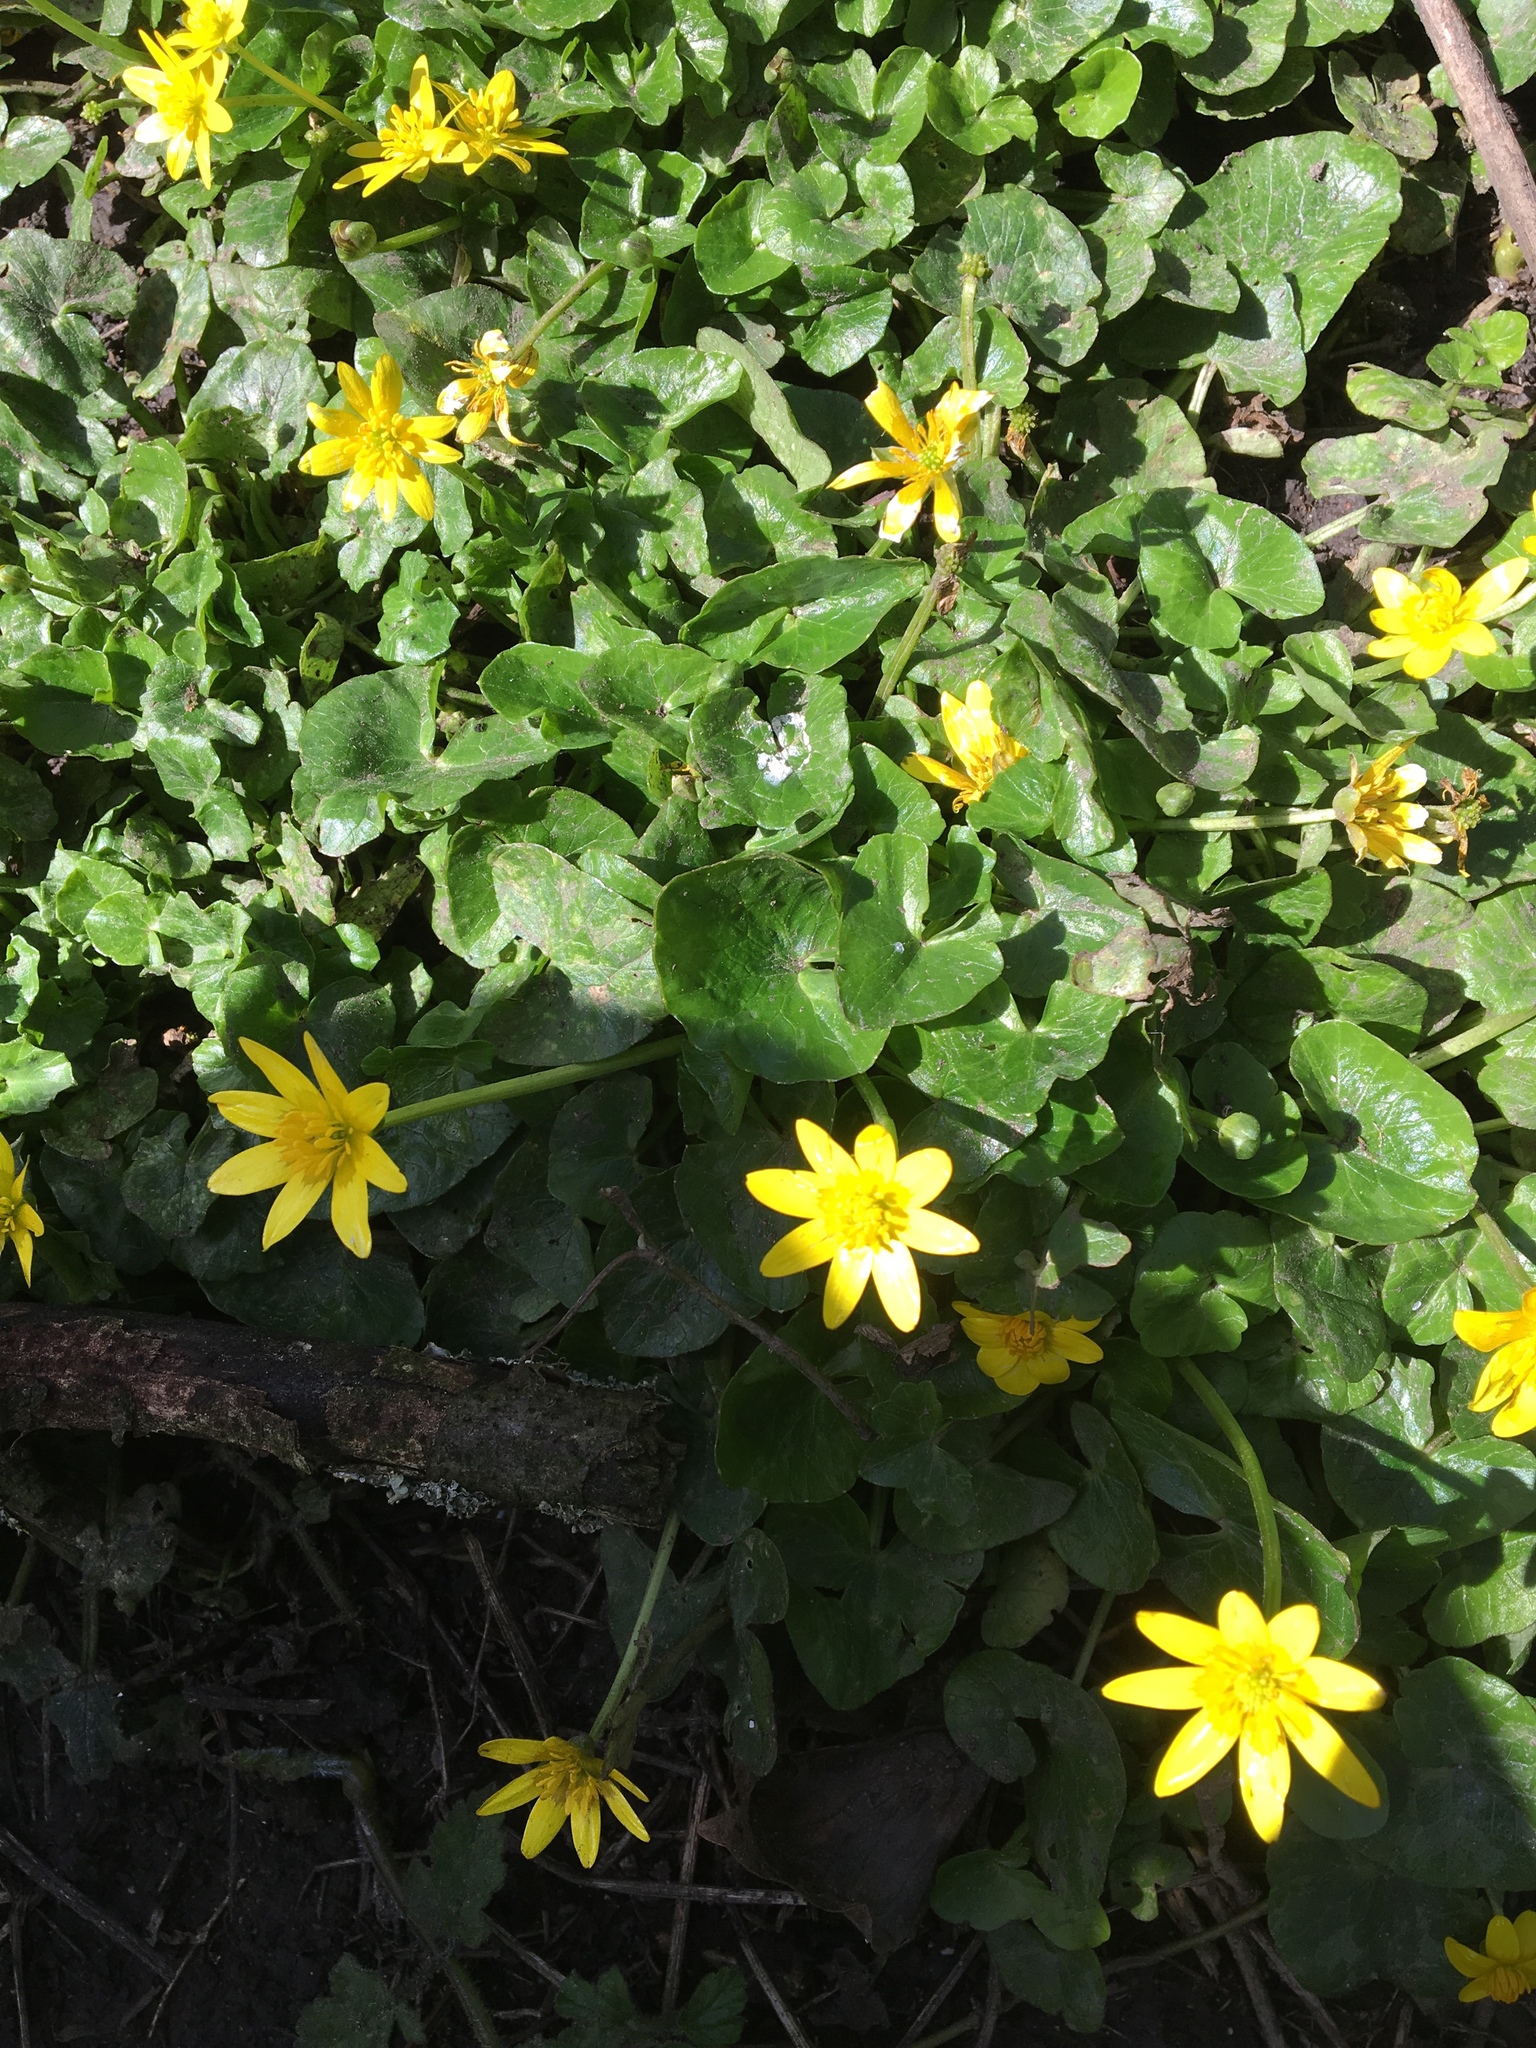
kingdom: Plantae
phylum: Tracheophyta
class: Magnoliopsida
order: Ranunculales
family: Ranunculaceae
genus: Ficaria
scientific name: Ficaria verna
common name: Lesser celandine
